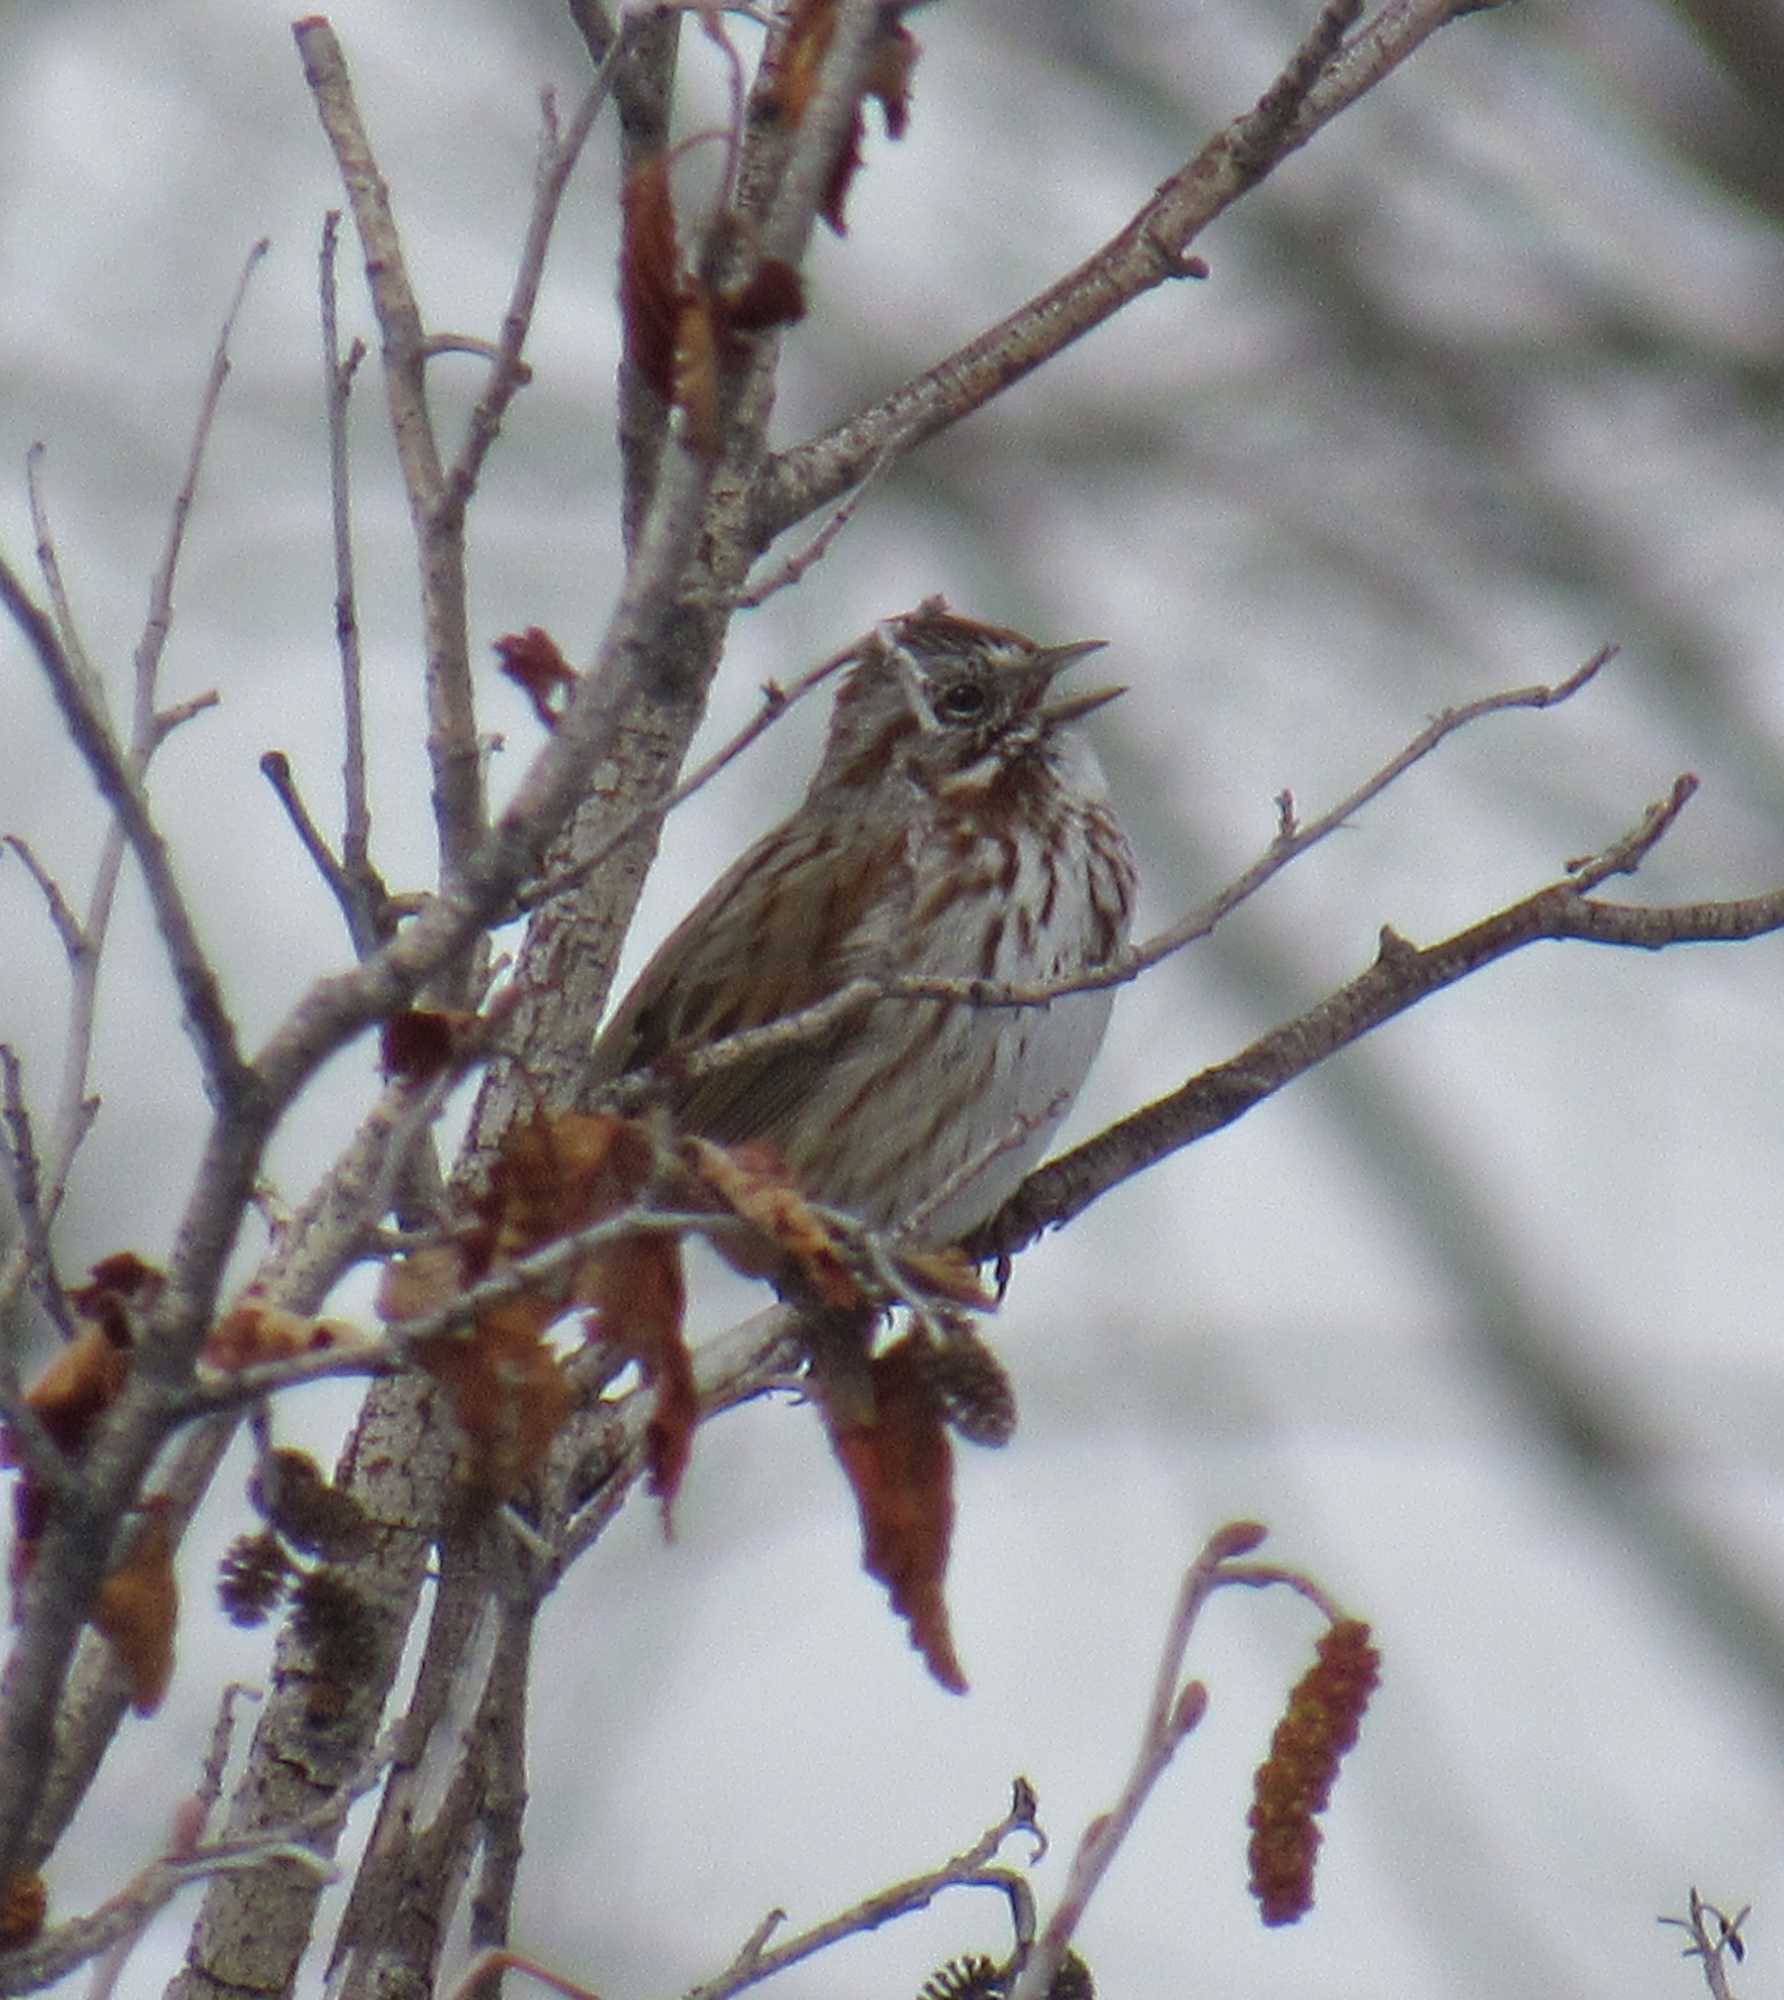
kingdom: Animalia
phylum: Chordata
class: Aves
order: Passeriformes
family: Passerellidae
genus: Melospiza
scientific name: Melospiza melodia
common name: Song sparrow
